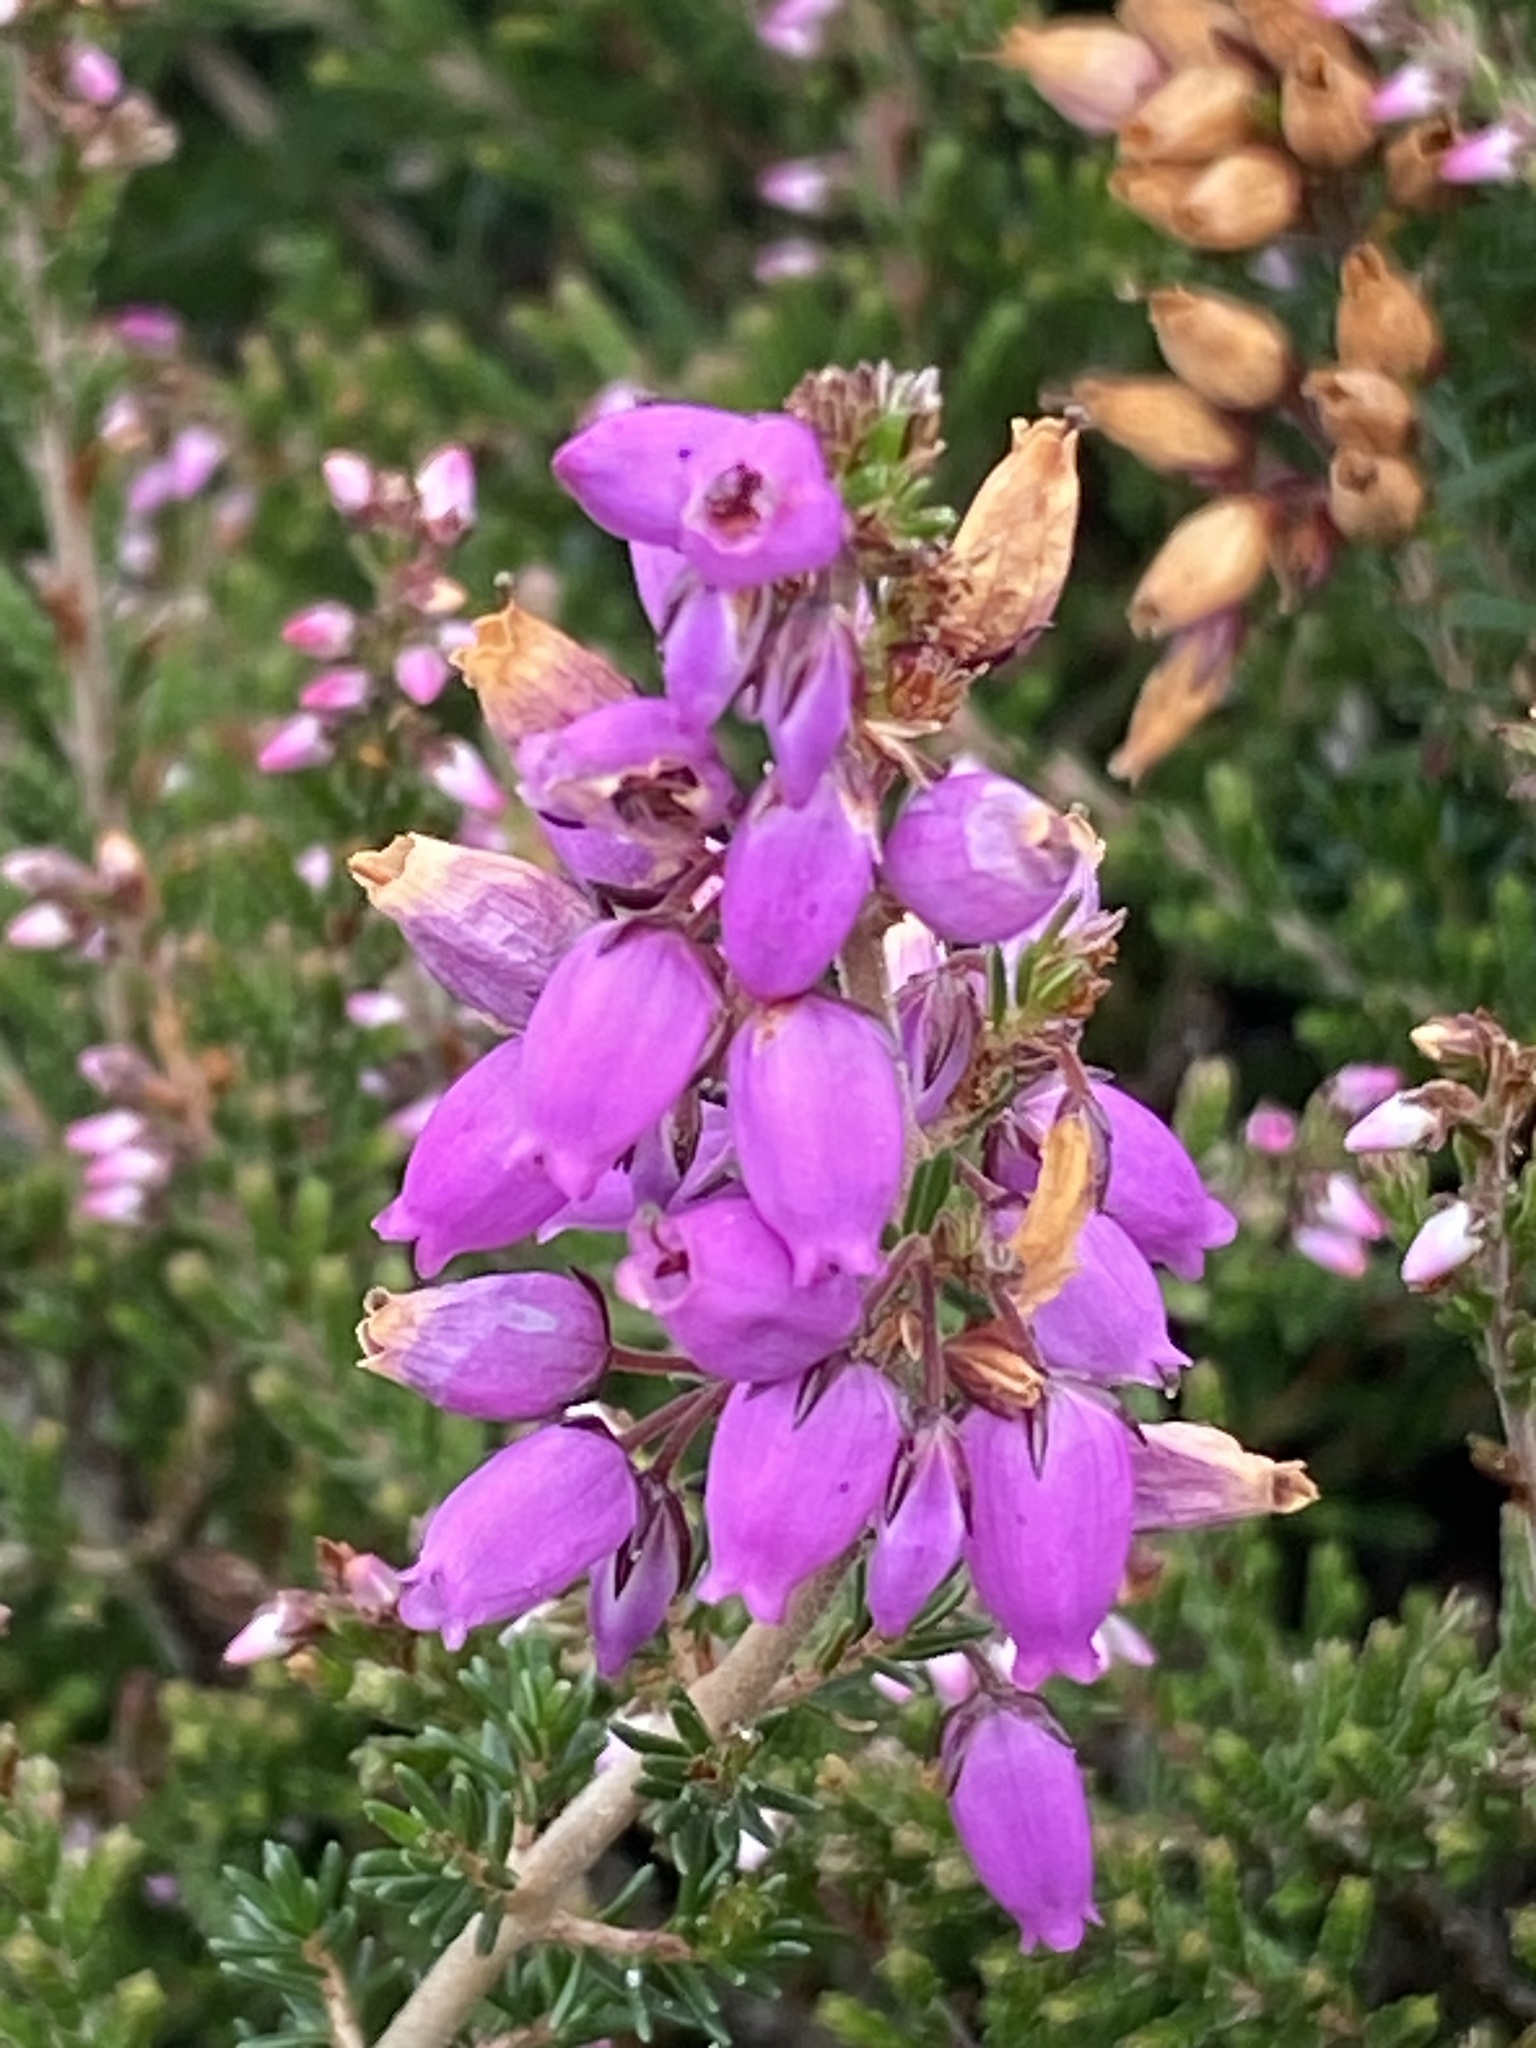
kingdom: Plantae
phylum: Tracheophyta
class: Magnoliopsida
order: Ericales
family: Ericaceae
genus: Erica
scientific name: Erica cinerea
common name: Bell heather
